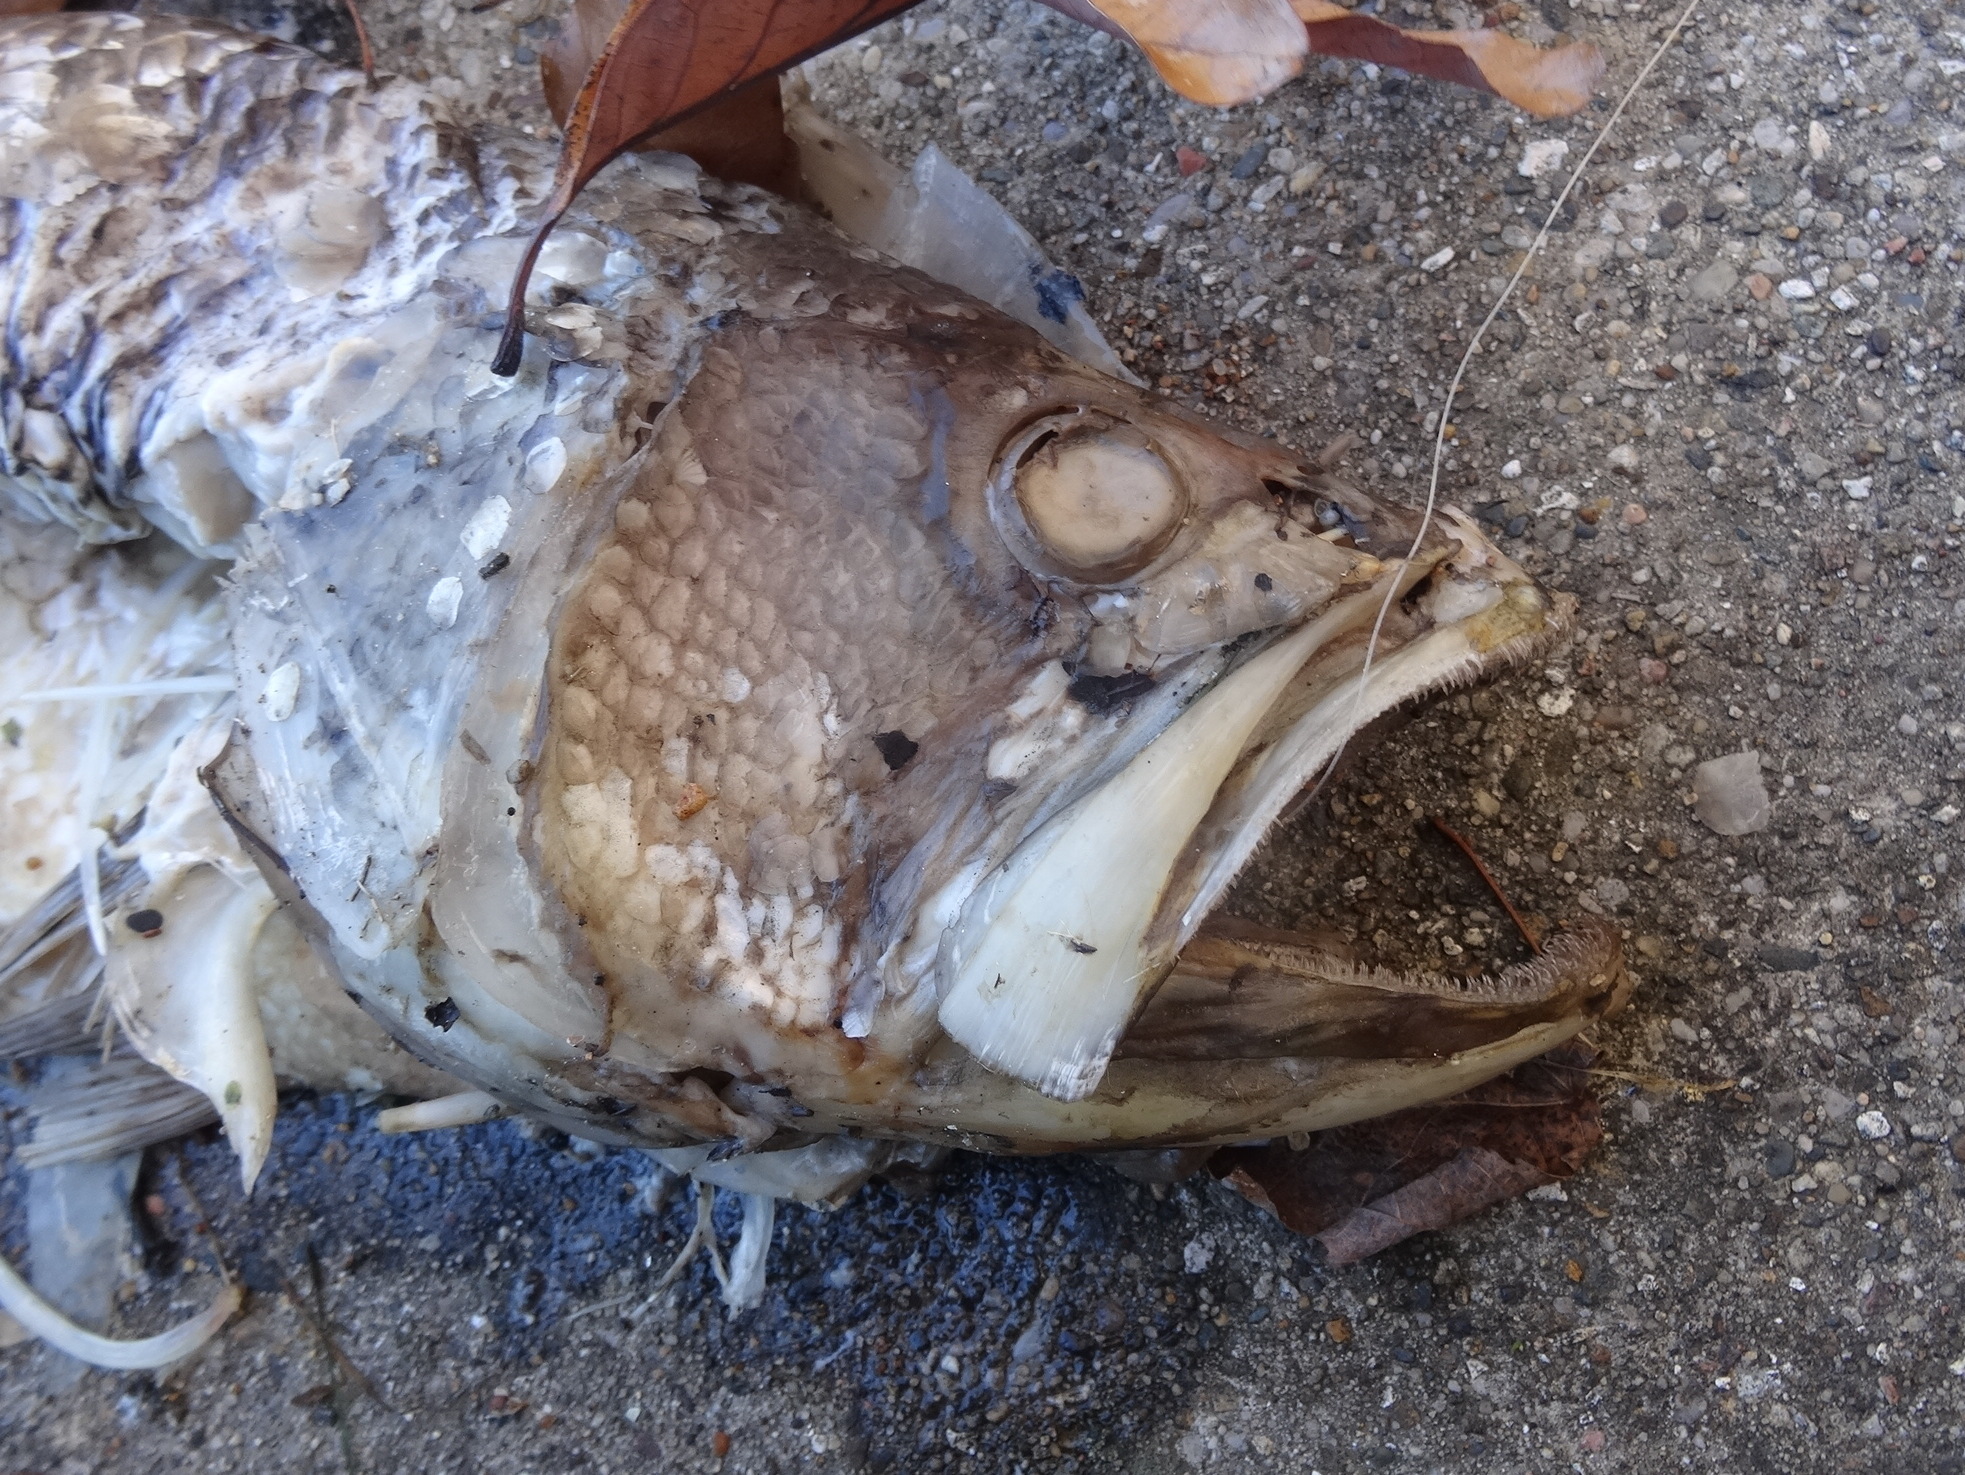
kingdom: Animalia
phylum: Chordata
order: Perciformes
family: Centrarchidae
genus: Micropterus
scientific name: Micropterus
